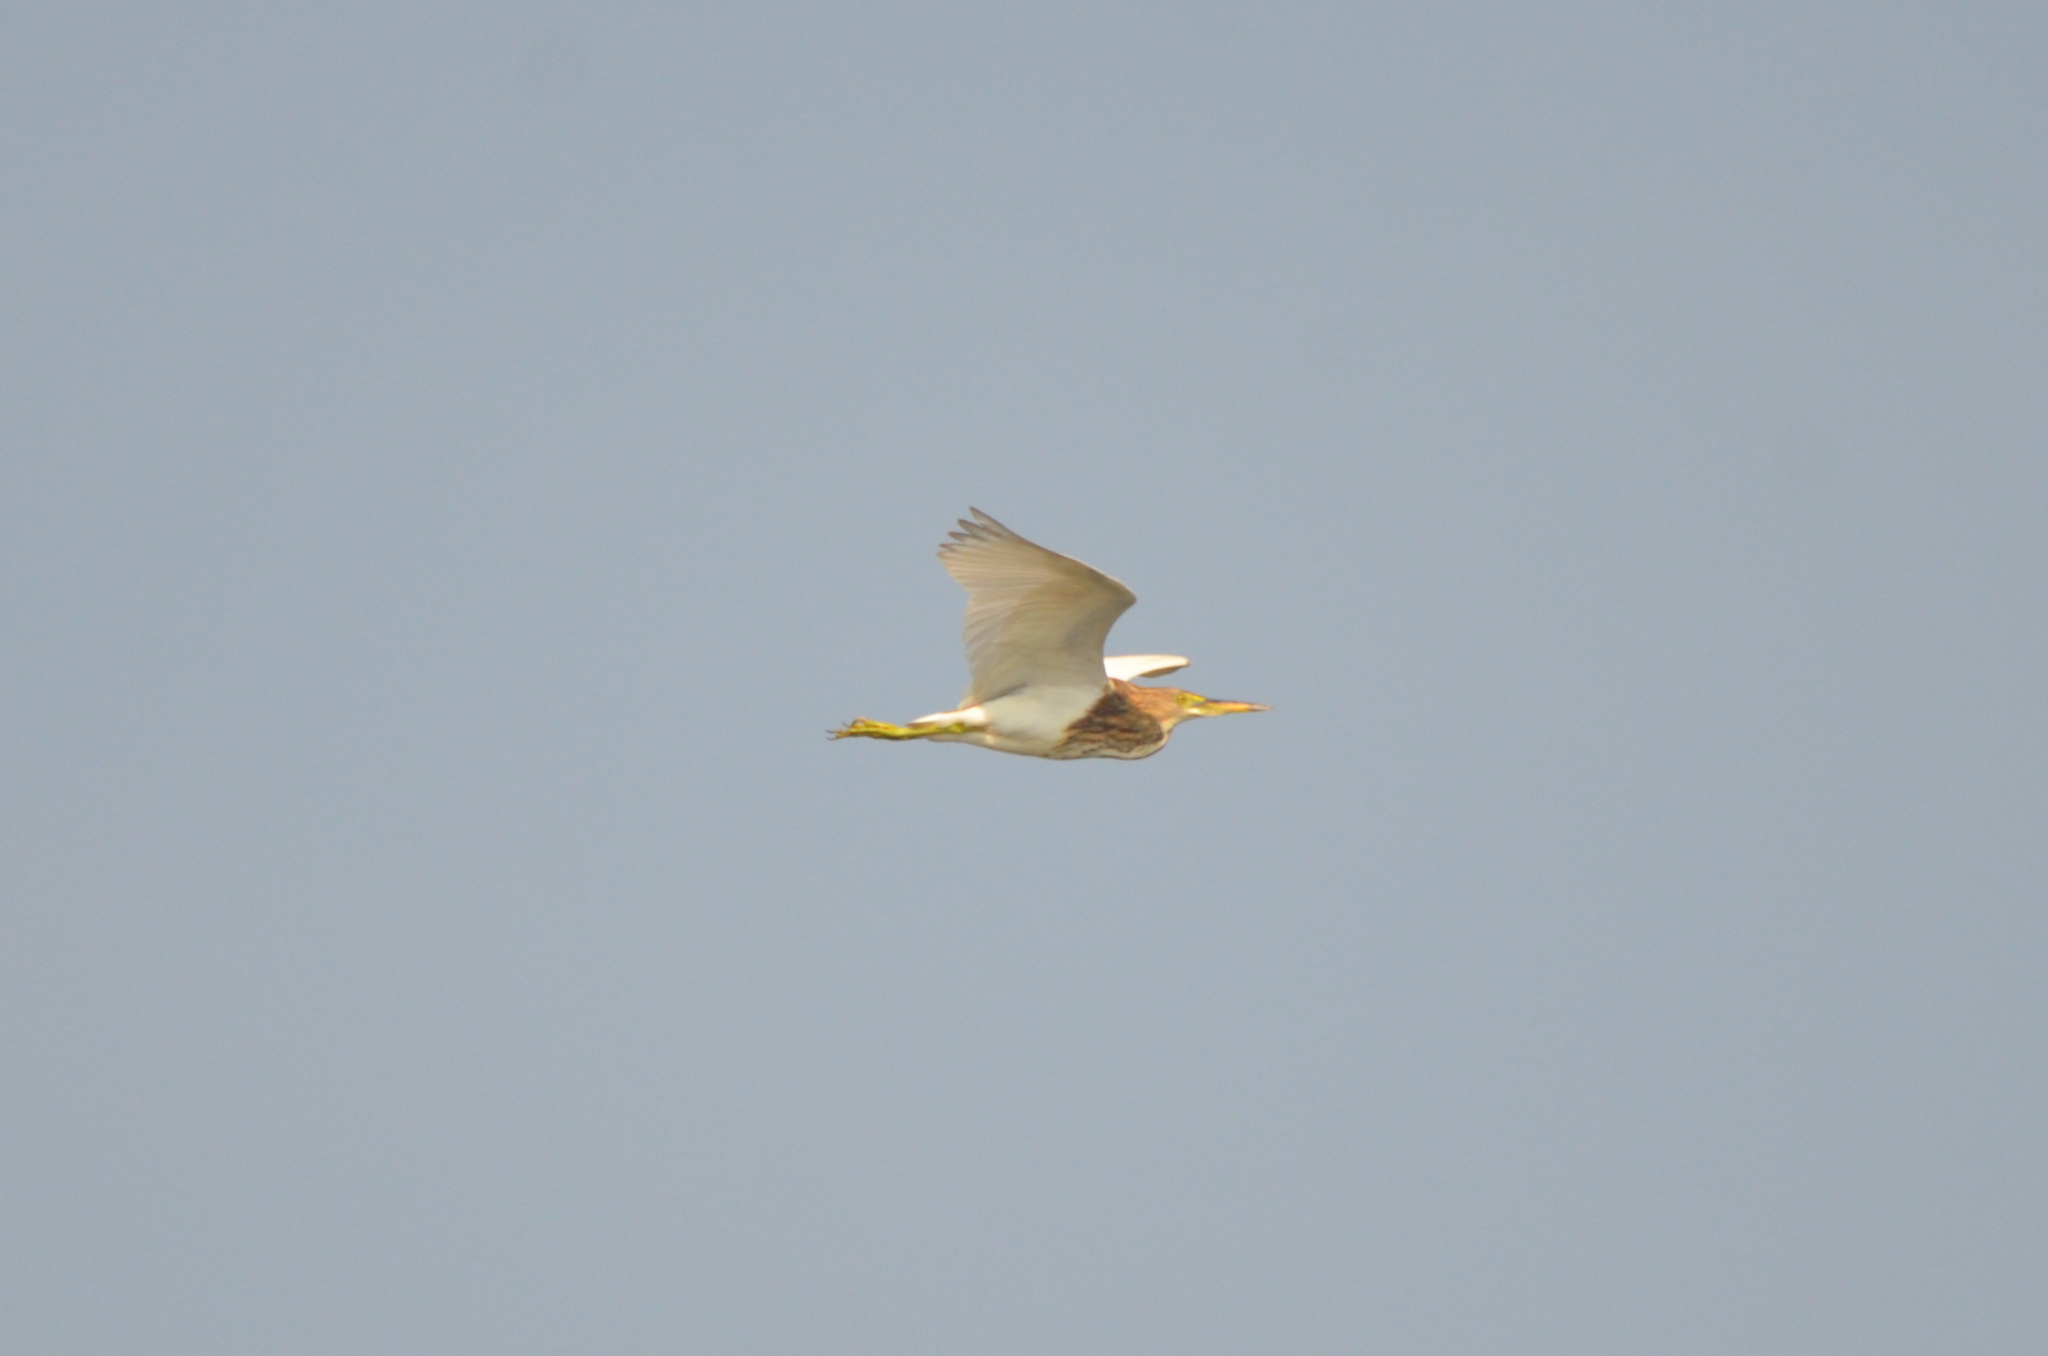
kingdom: Animalia
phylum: Chordata
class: Aves
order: Pelecaniformes
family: Ardeidae
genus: Ardeola
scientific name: Ardeola bacchus
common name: Chinese pond heron
